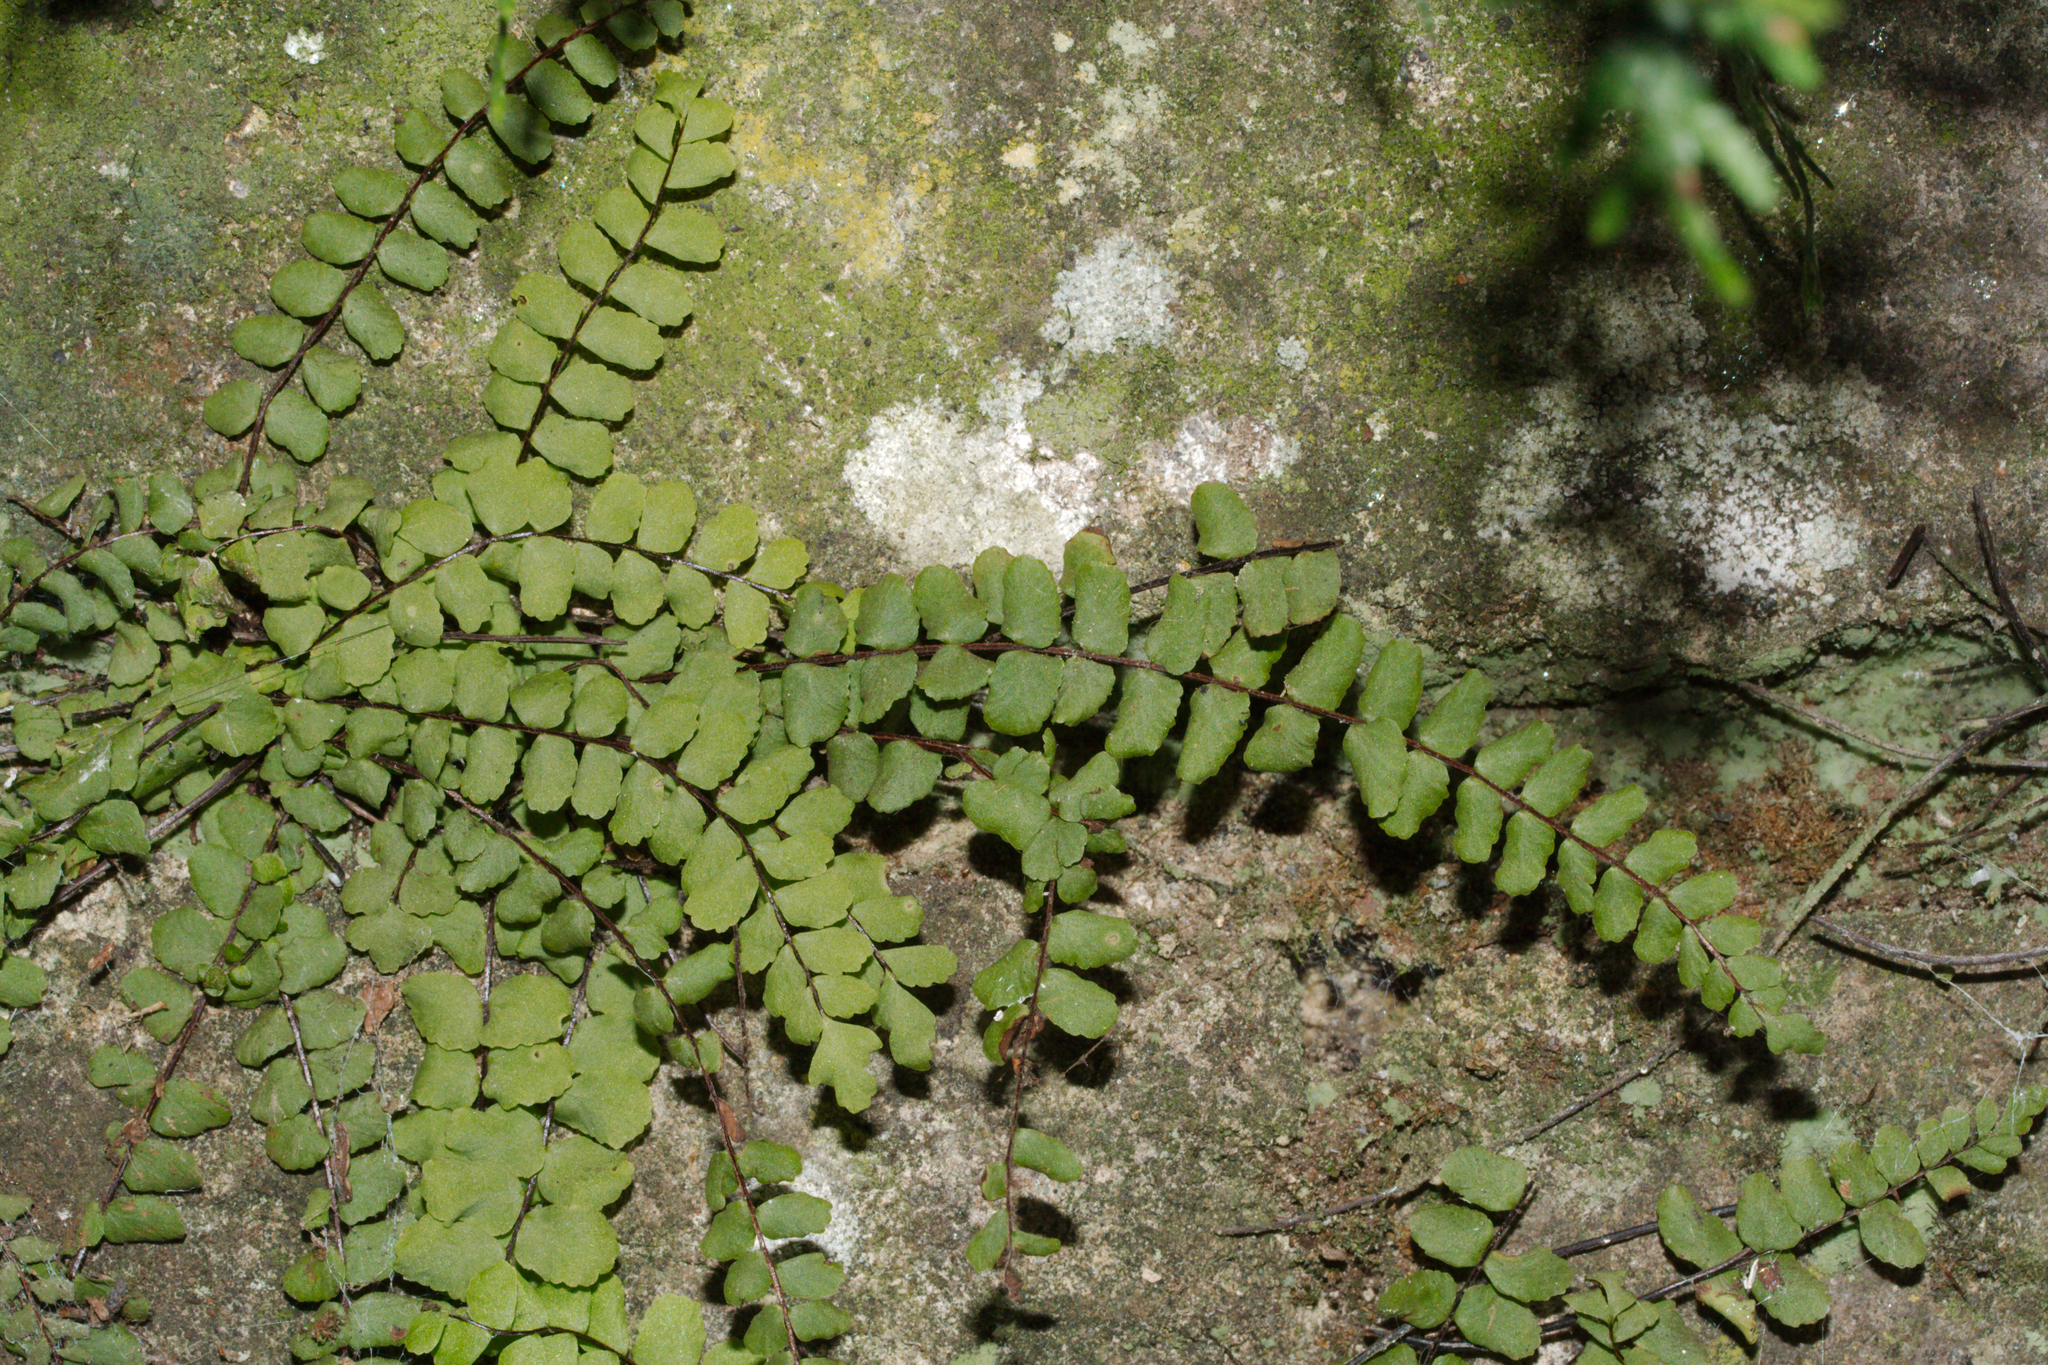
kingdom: Plantae
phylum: Tracheophyta
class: Polypodiopsida
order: Polypodiales
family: Aspleniaceae
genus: Asplenium
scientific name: Asplenium trichomanes
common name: Maidenhair spleenwort
